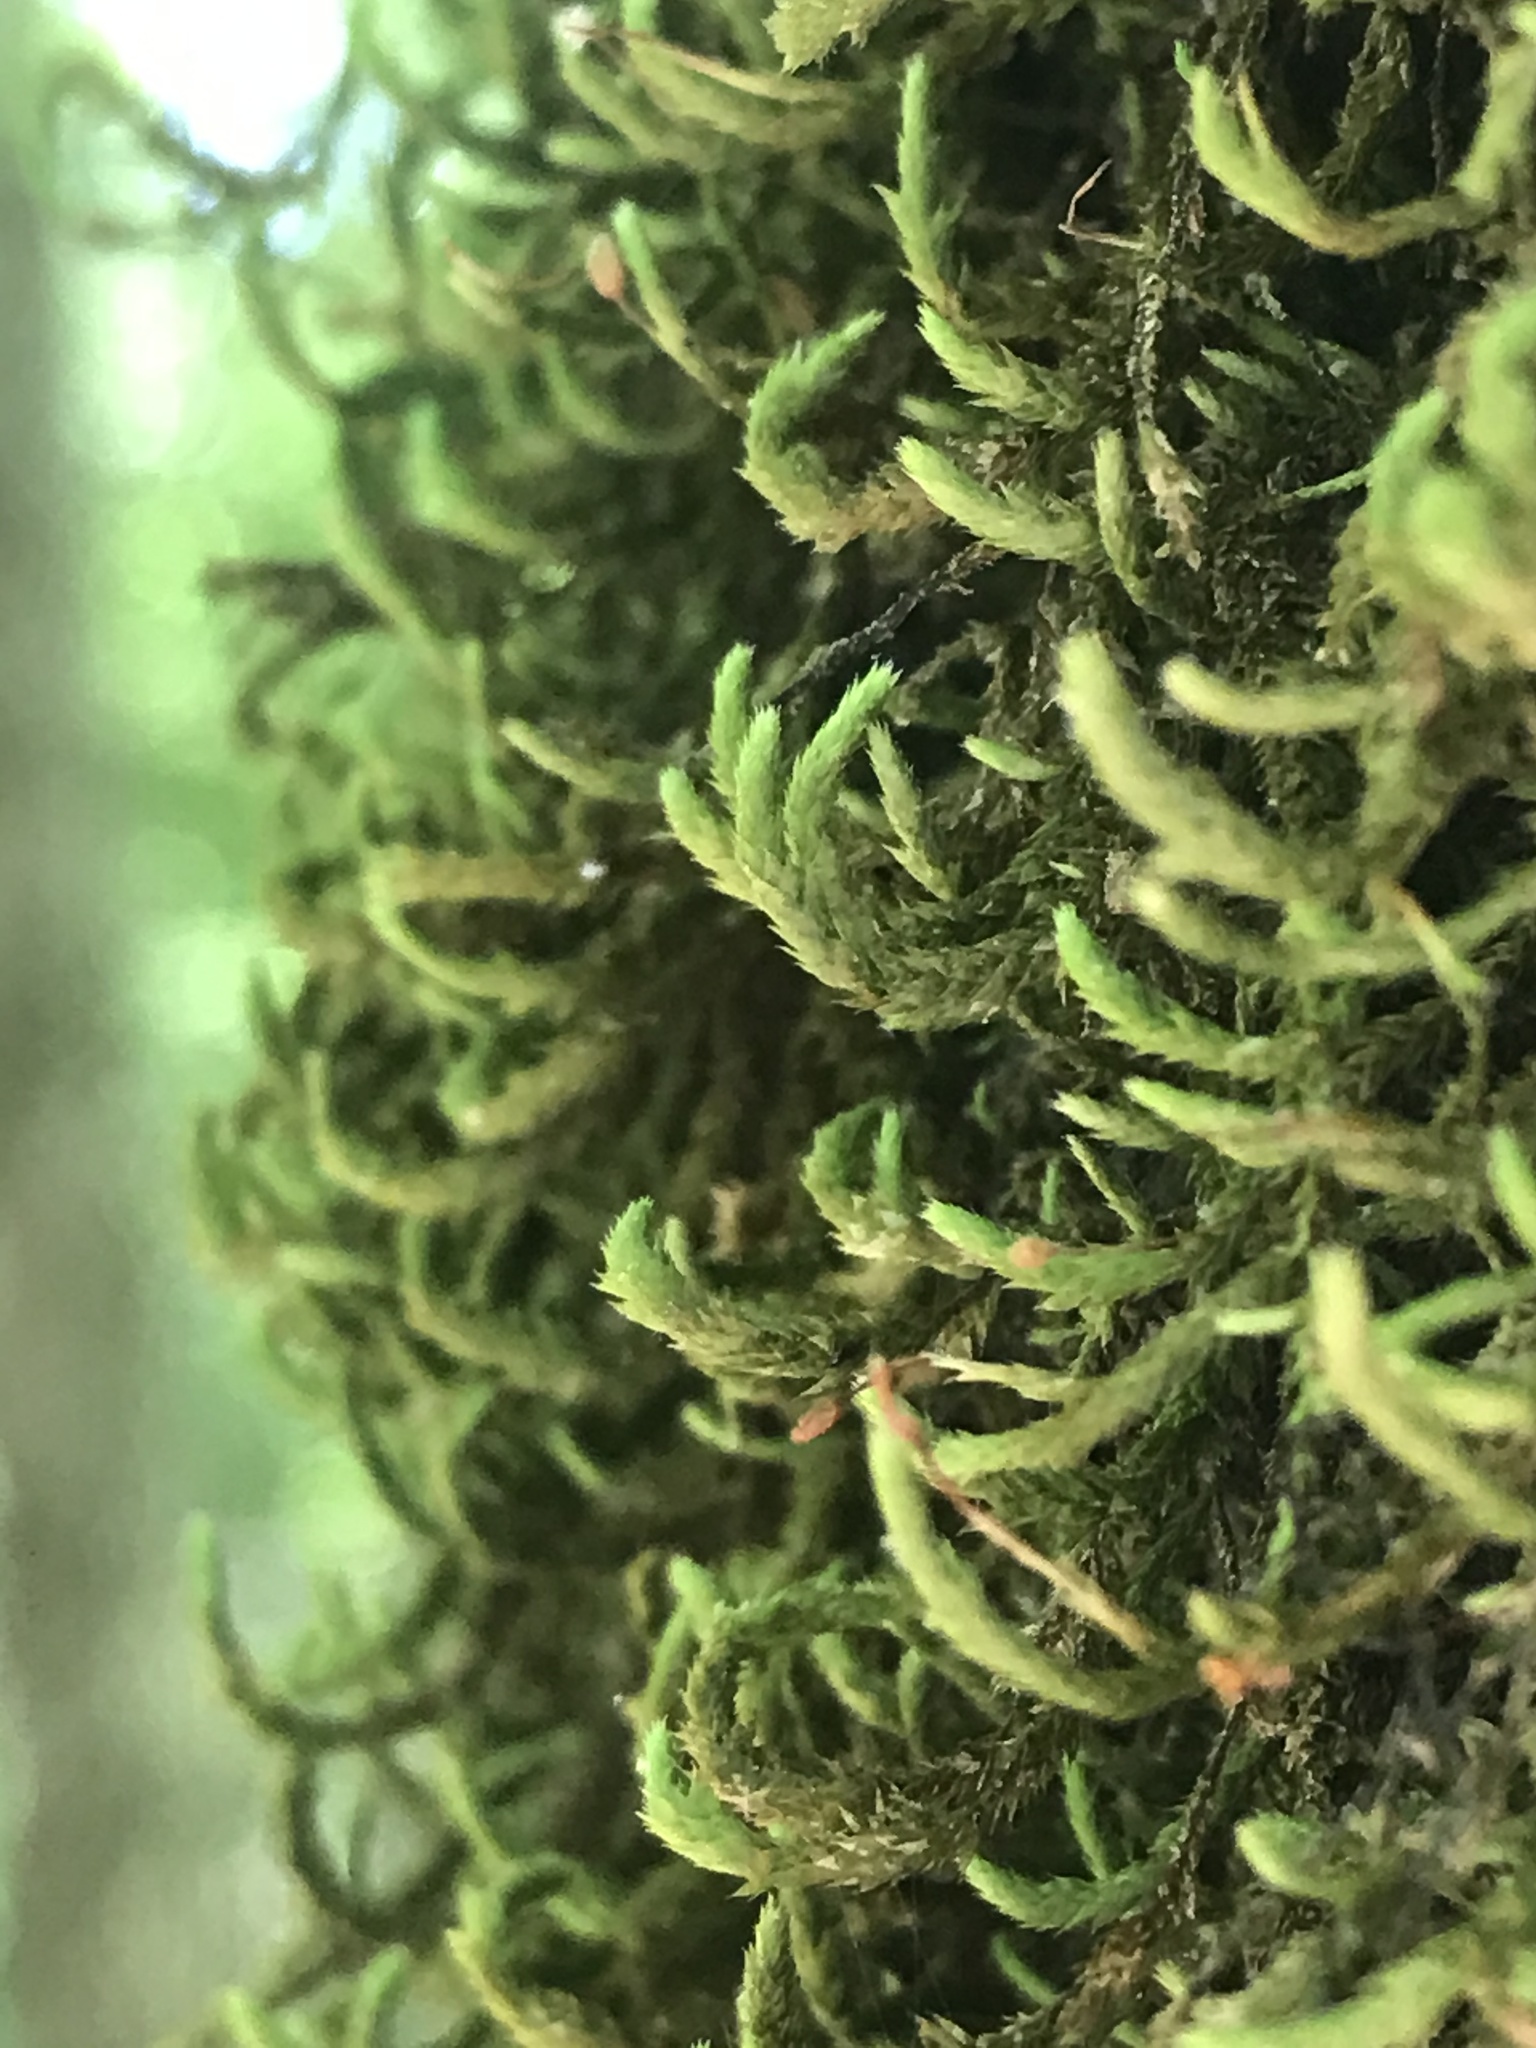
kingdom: Plantae
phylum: Bryophyta
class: Bryopsida
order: Hypnales
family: Leucodontaceae
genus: Leucodon
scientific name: Leucodon julaceus
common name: Smooth hook moss
